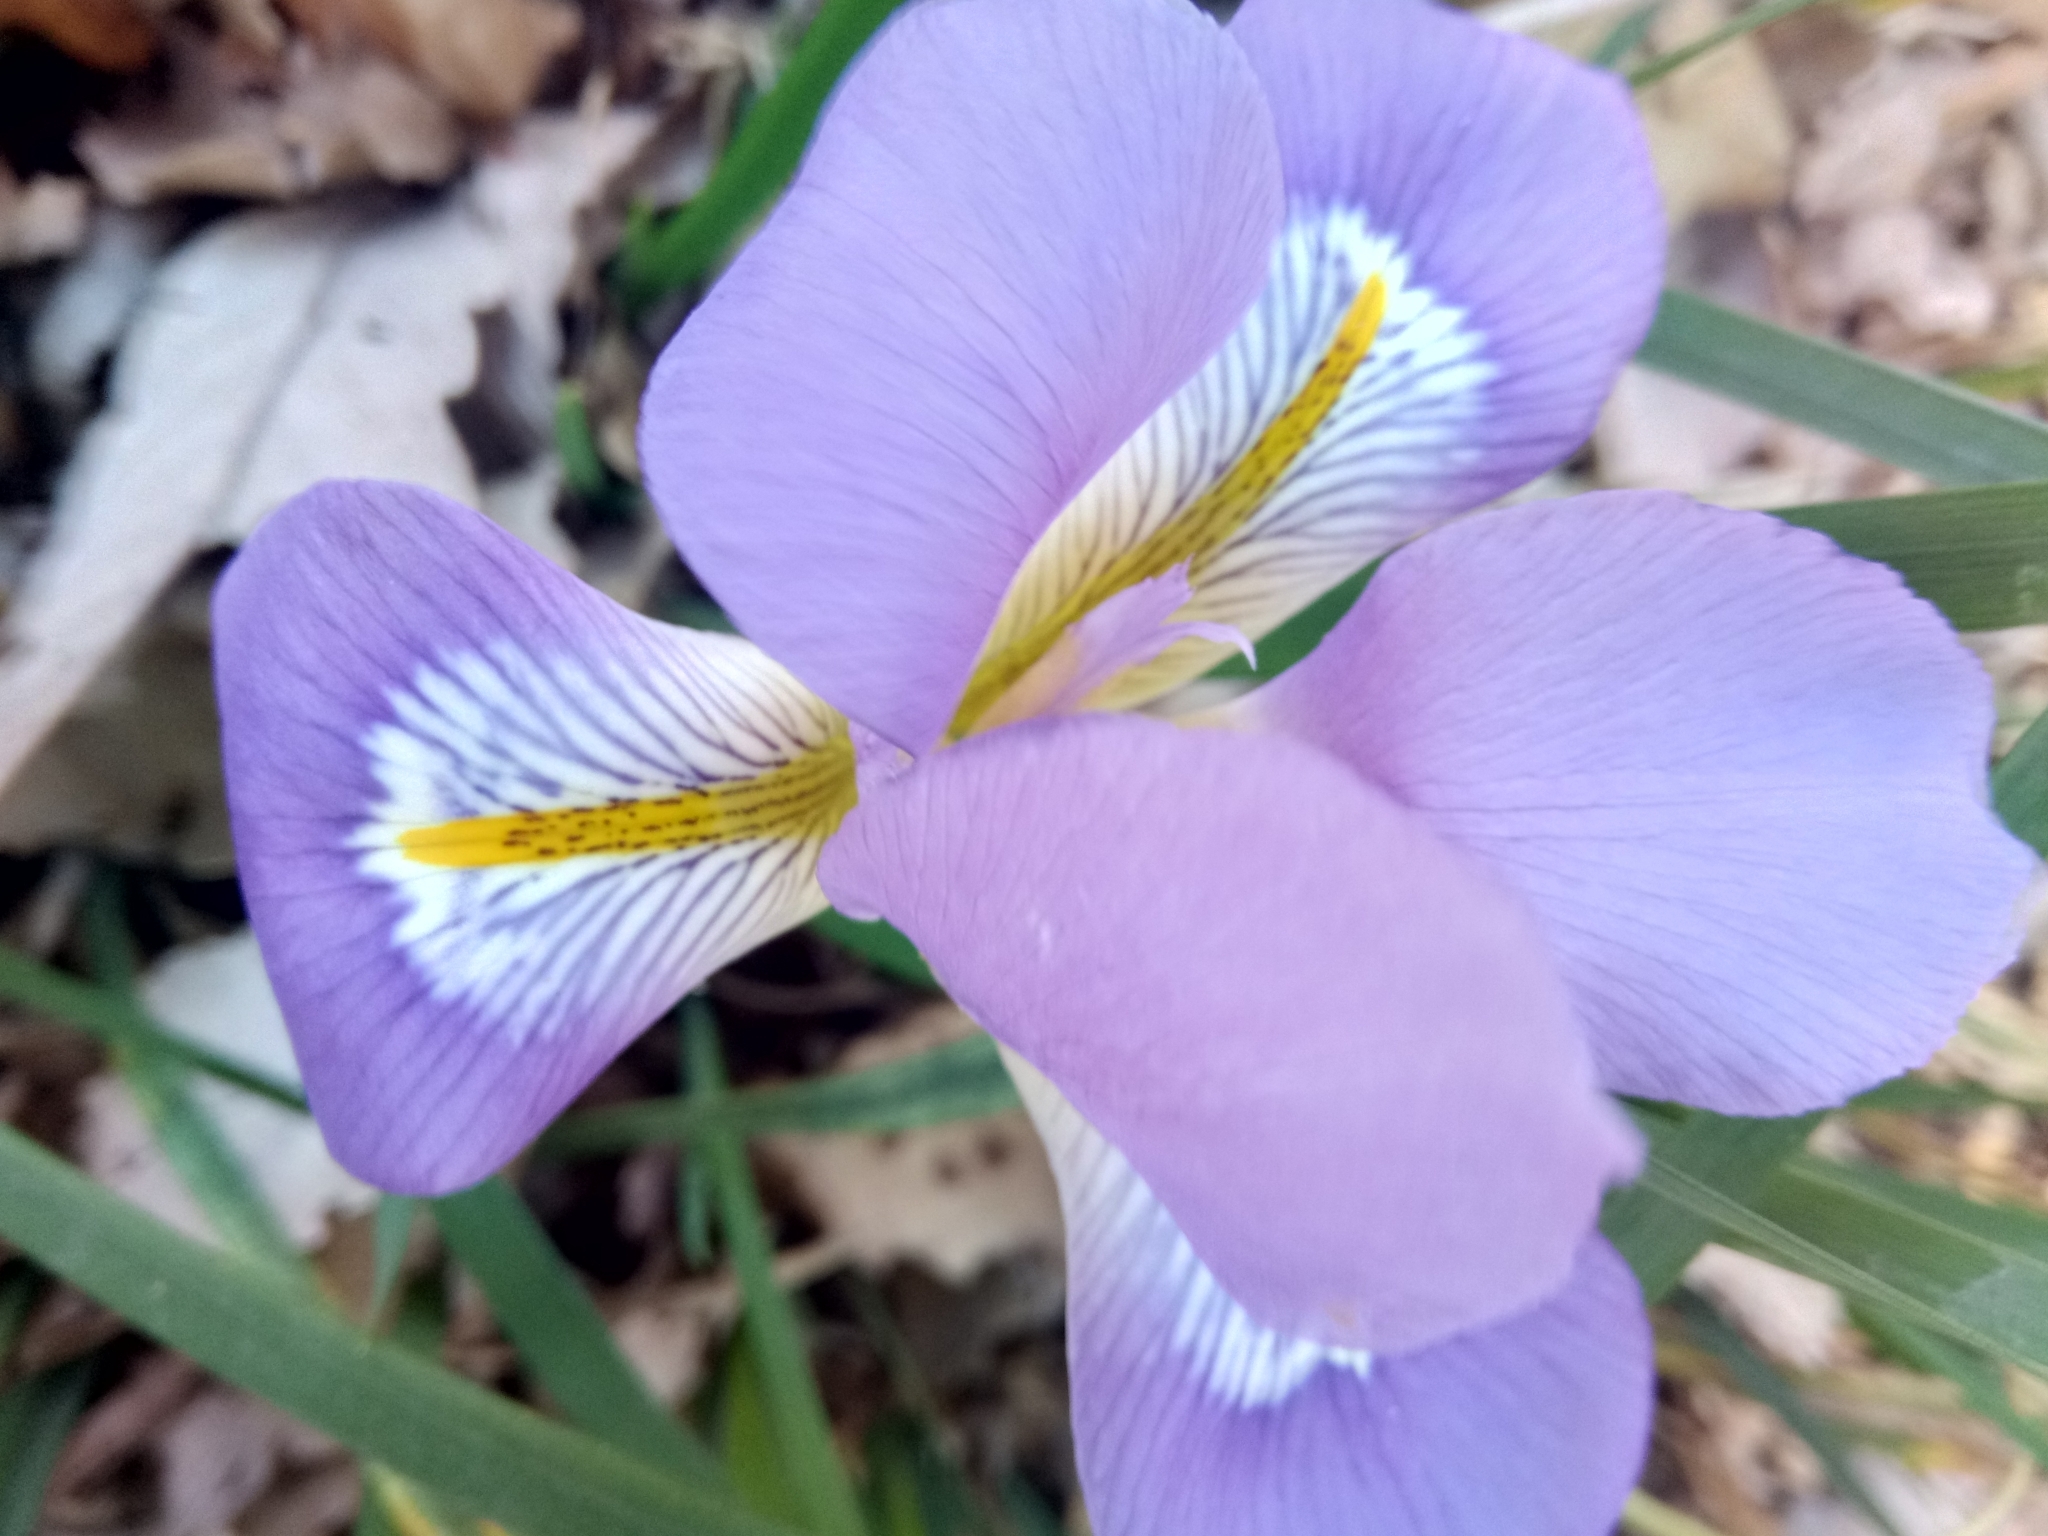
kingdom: Plantae
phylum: Tracheophyta
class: Liliopsida
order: Asparagales
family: Iridaceae
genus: Iris
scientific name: Iris unguicularis
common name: Algerian iris
